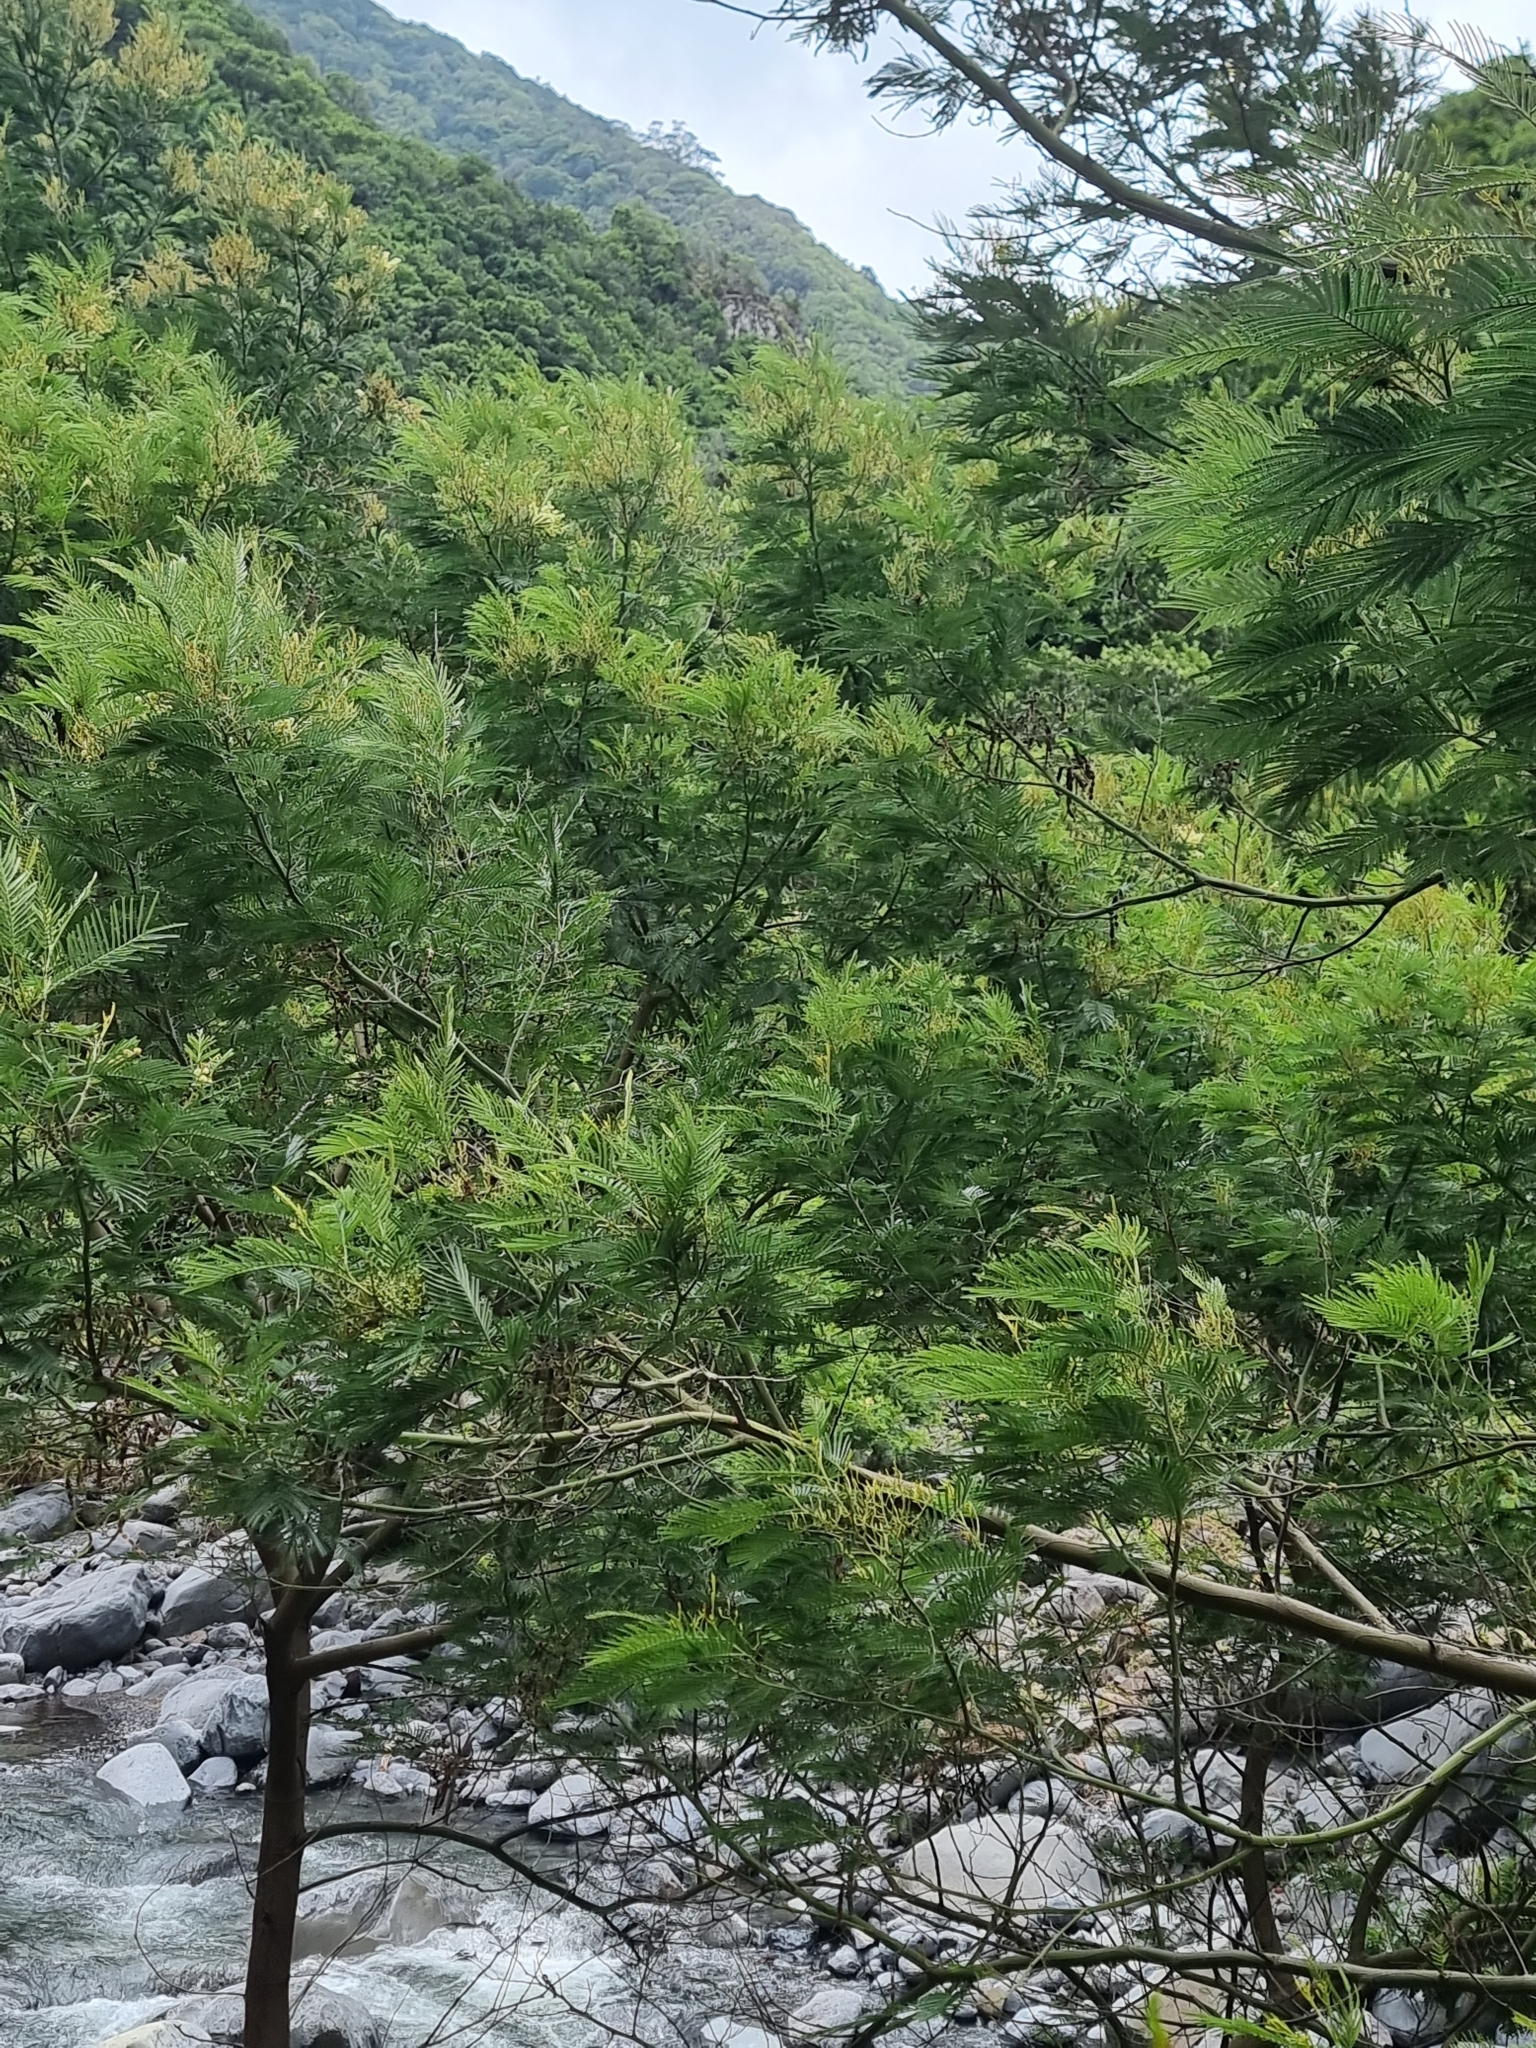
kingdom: Plantae
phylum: Tracheophyta
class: Magnoliopsida
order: Fabales
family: Fabaceae
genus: Acacia
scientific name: Acacia mearnsii
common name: Black wattle
